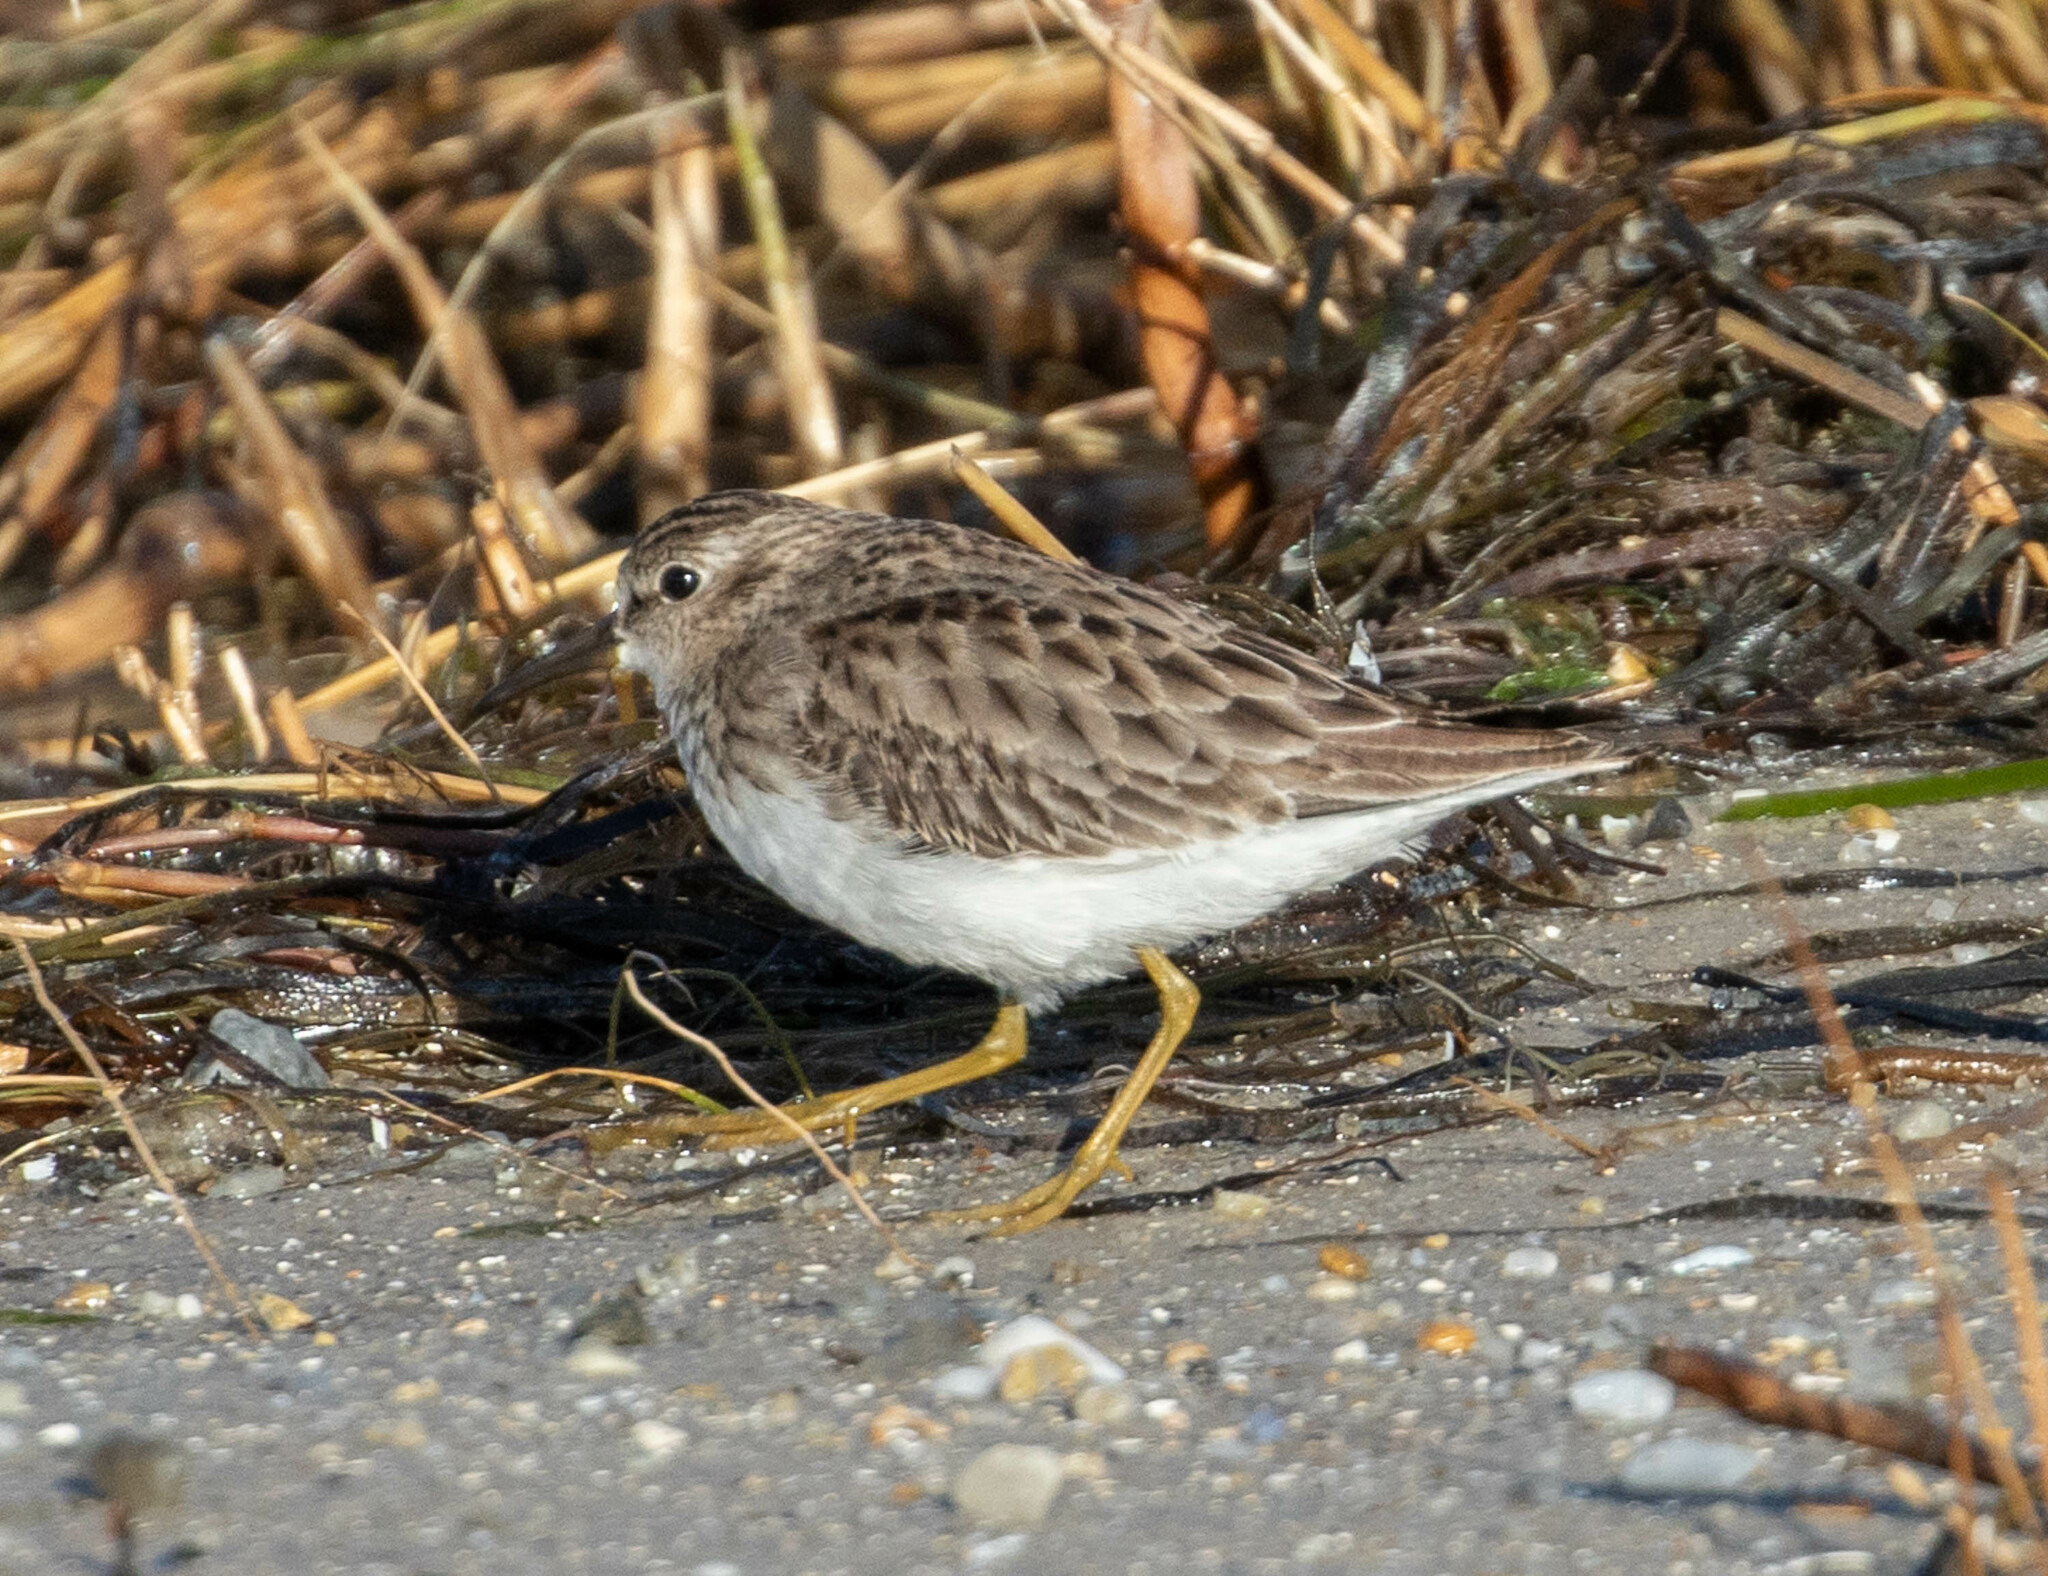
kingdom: Animalia
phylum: Chordata
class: Aves
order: Charadriiformes
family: Scolopacidae
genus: Calidris
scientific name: Calidris minutilla
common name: Least sandpiper
